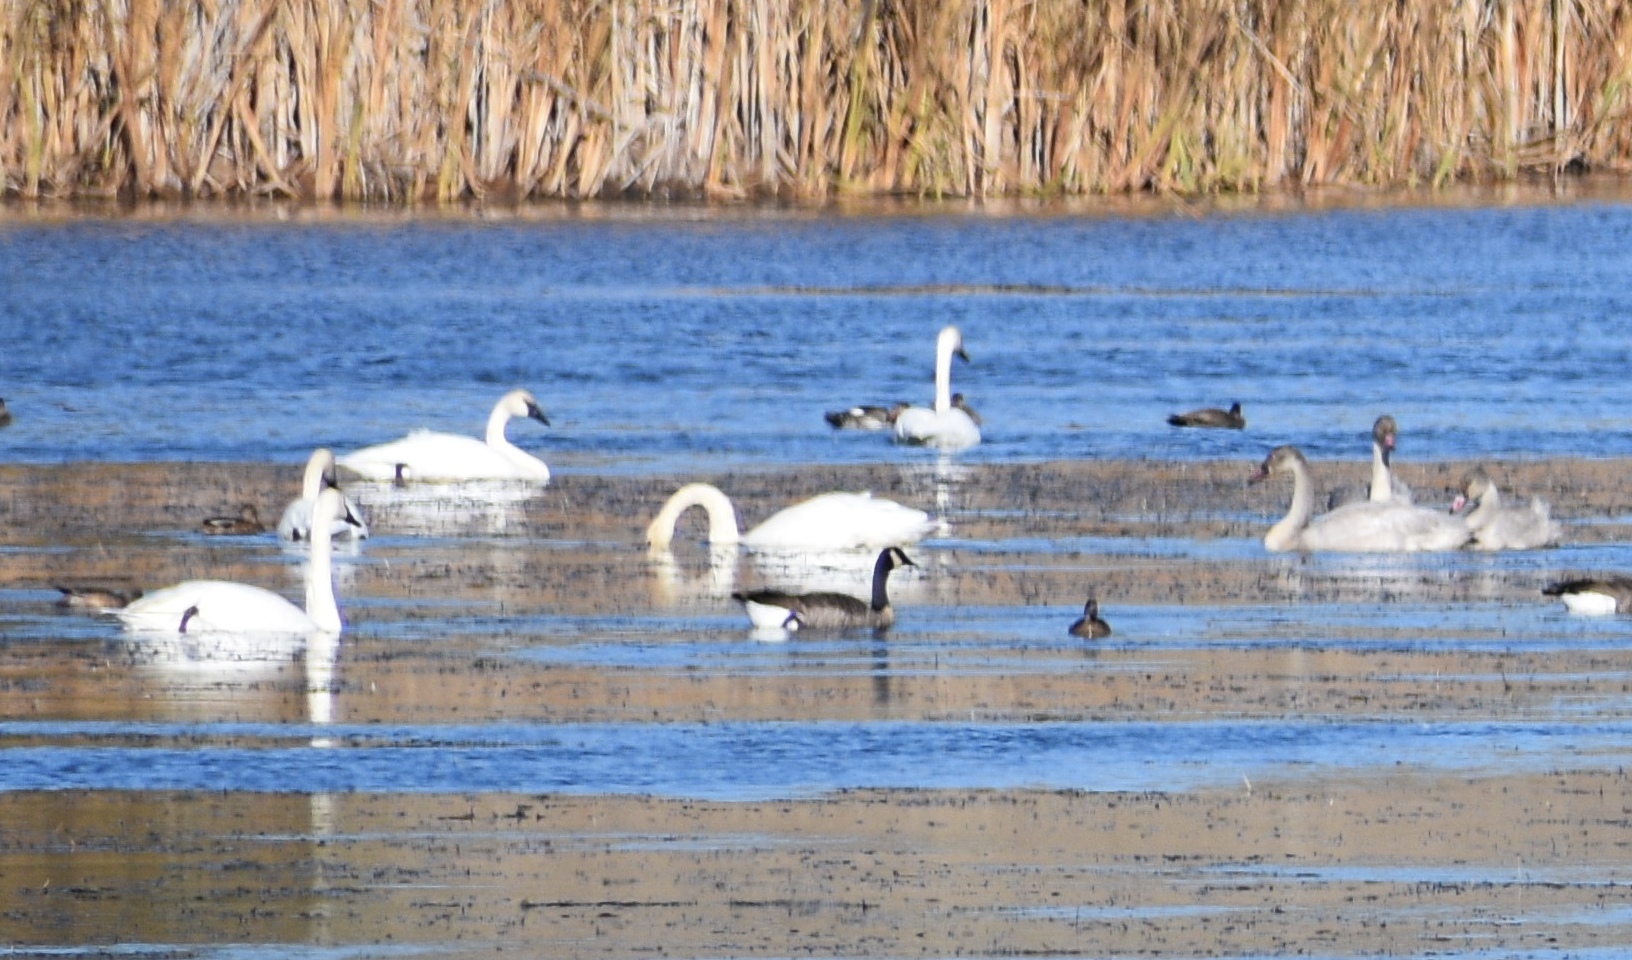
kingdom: Animalia
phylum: Chordata
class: Aves
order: Anseriformes
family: Anatidae
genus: Cygnus
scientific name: Cygnus buccinator
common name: Trumpeter swan
